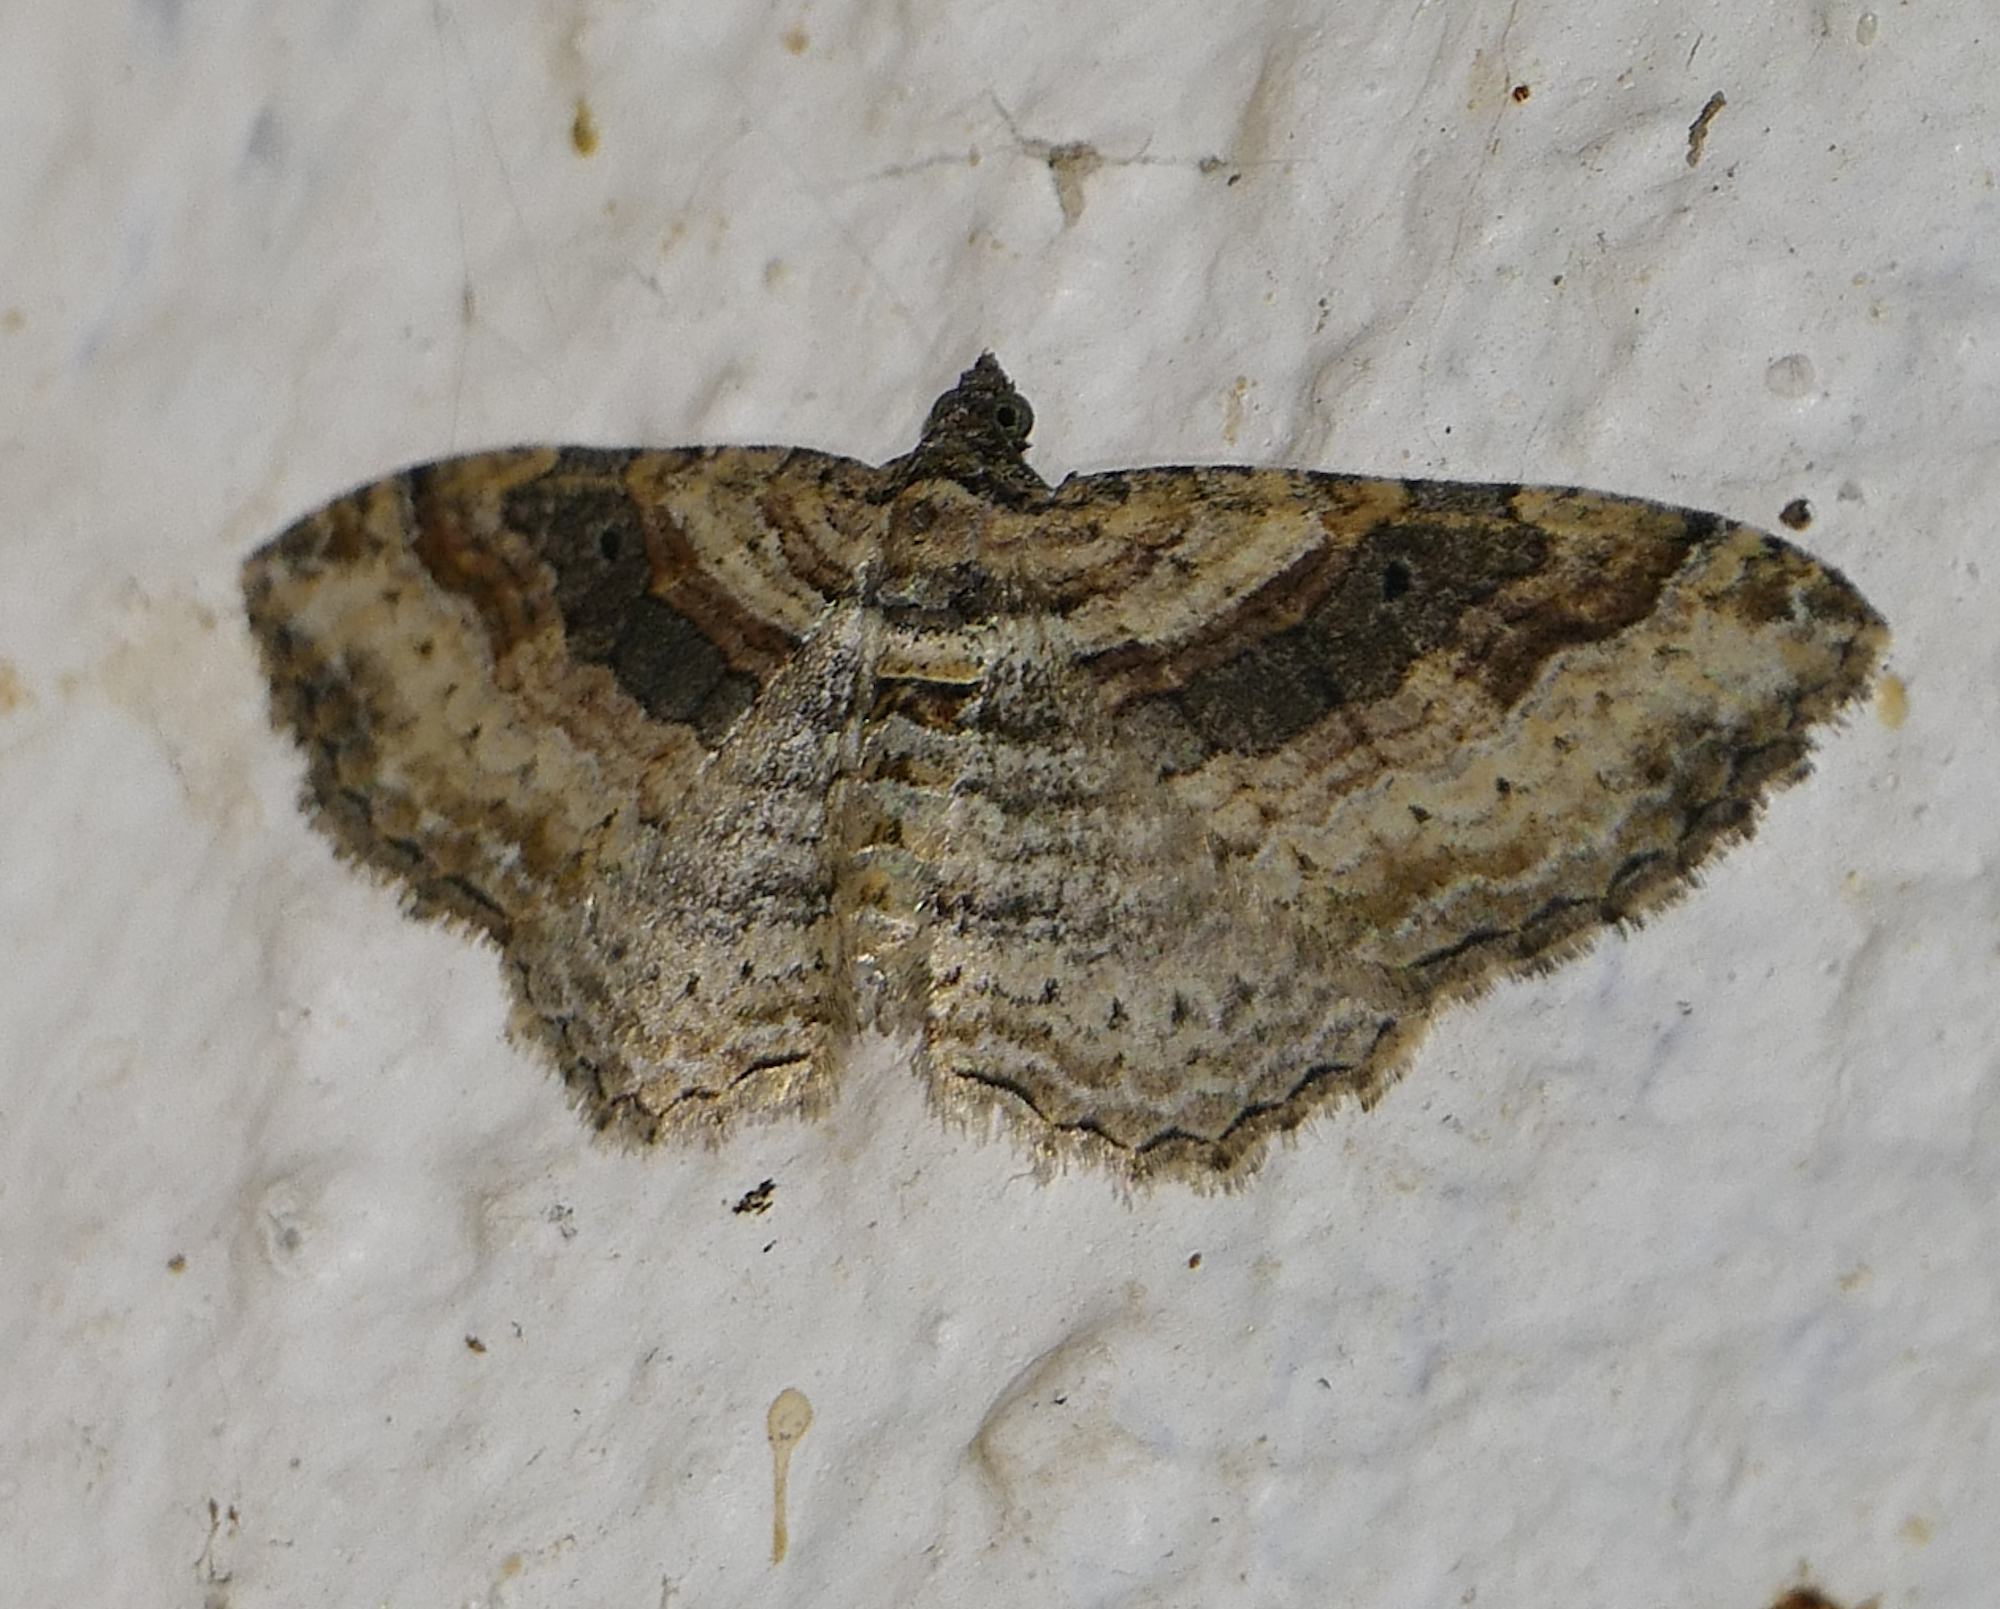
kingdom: Animalia
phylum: Arthropoda
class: Insecta
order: Lepidoptera
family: Geometridae
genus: Costaconvexa
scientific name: Costaconvexa centrostrigaria
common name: Bent-line carpet
